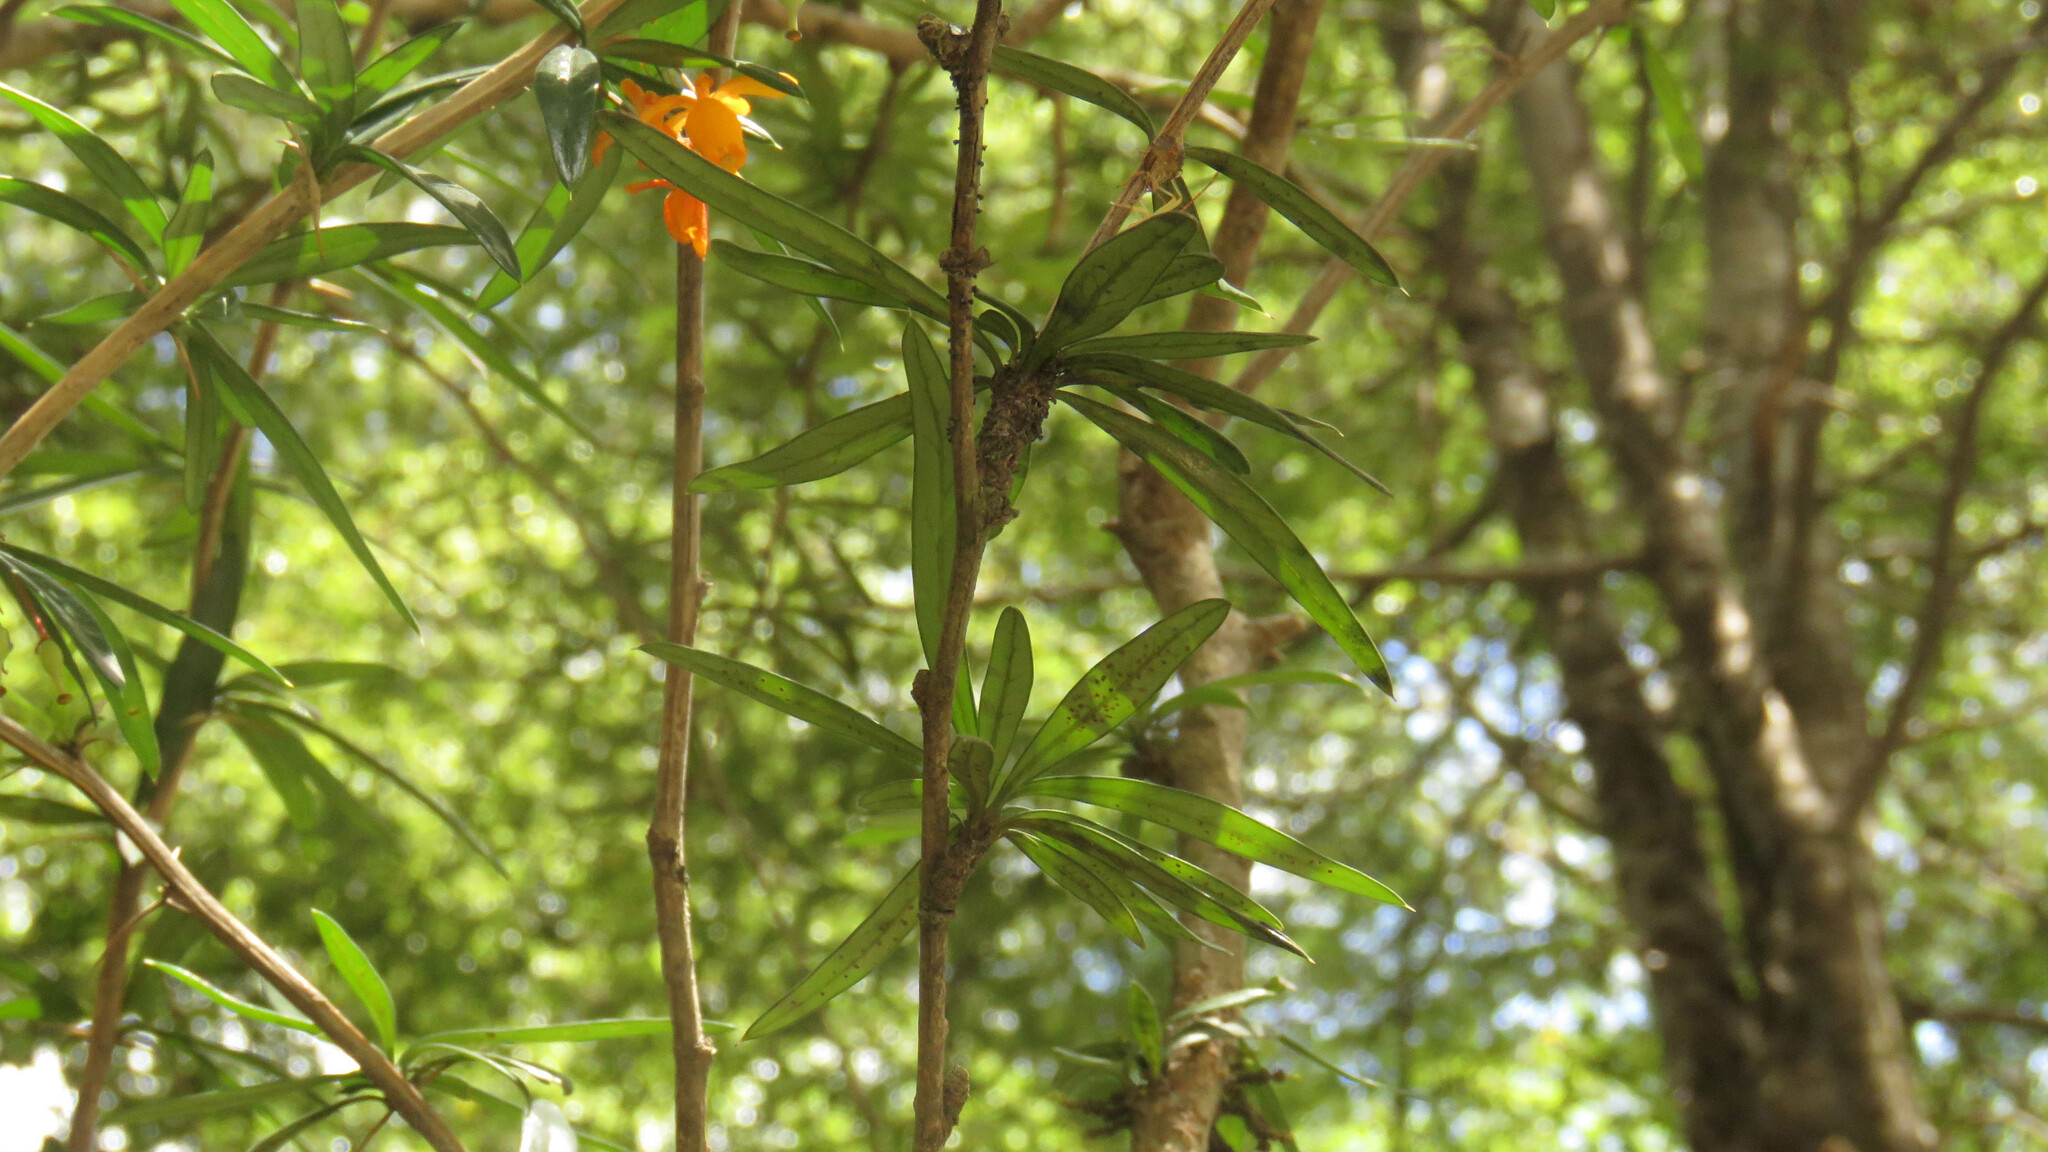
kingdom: Plantae
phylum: Tracheophyta
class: Magnoliopsida
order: Ranunculales
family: Berberidaceae
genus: Berberis
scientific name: Berberis trigona
